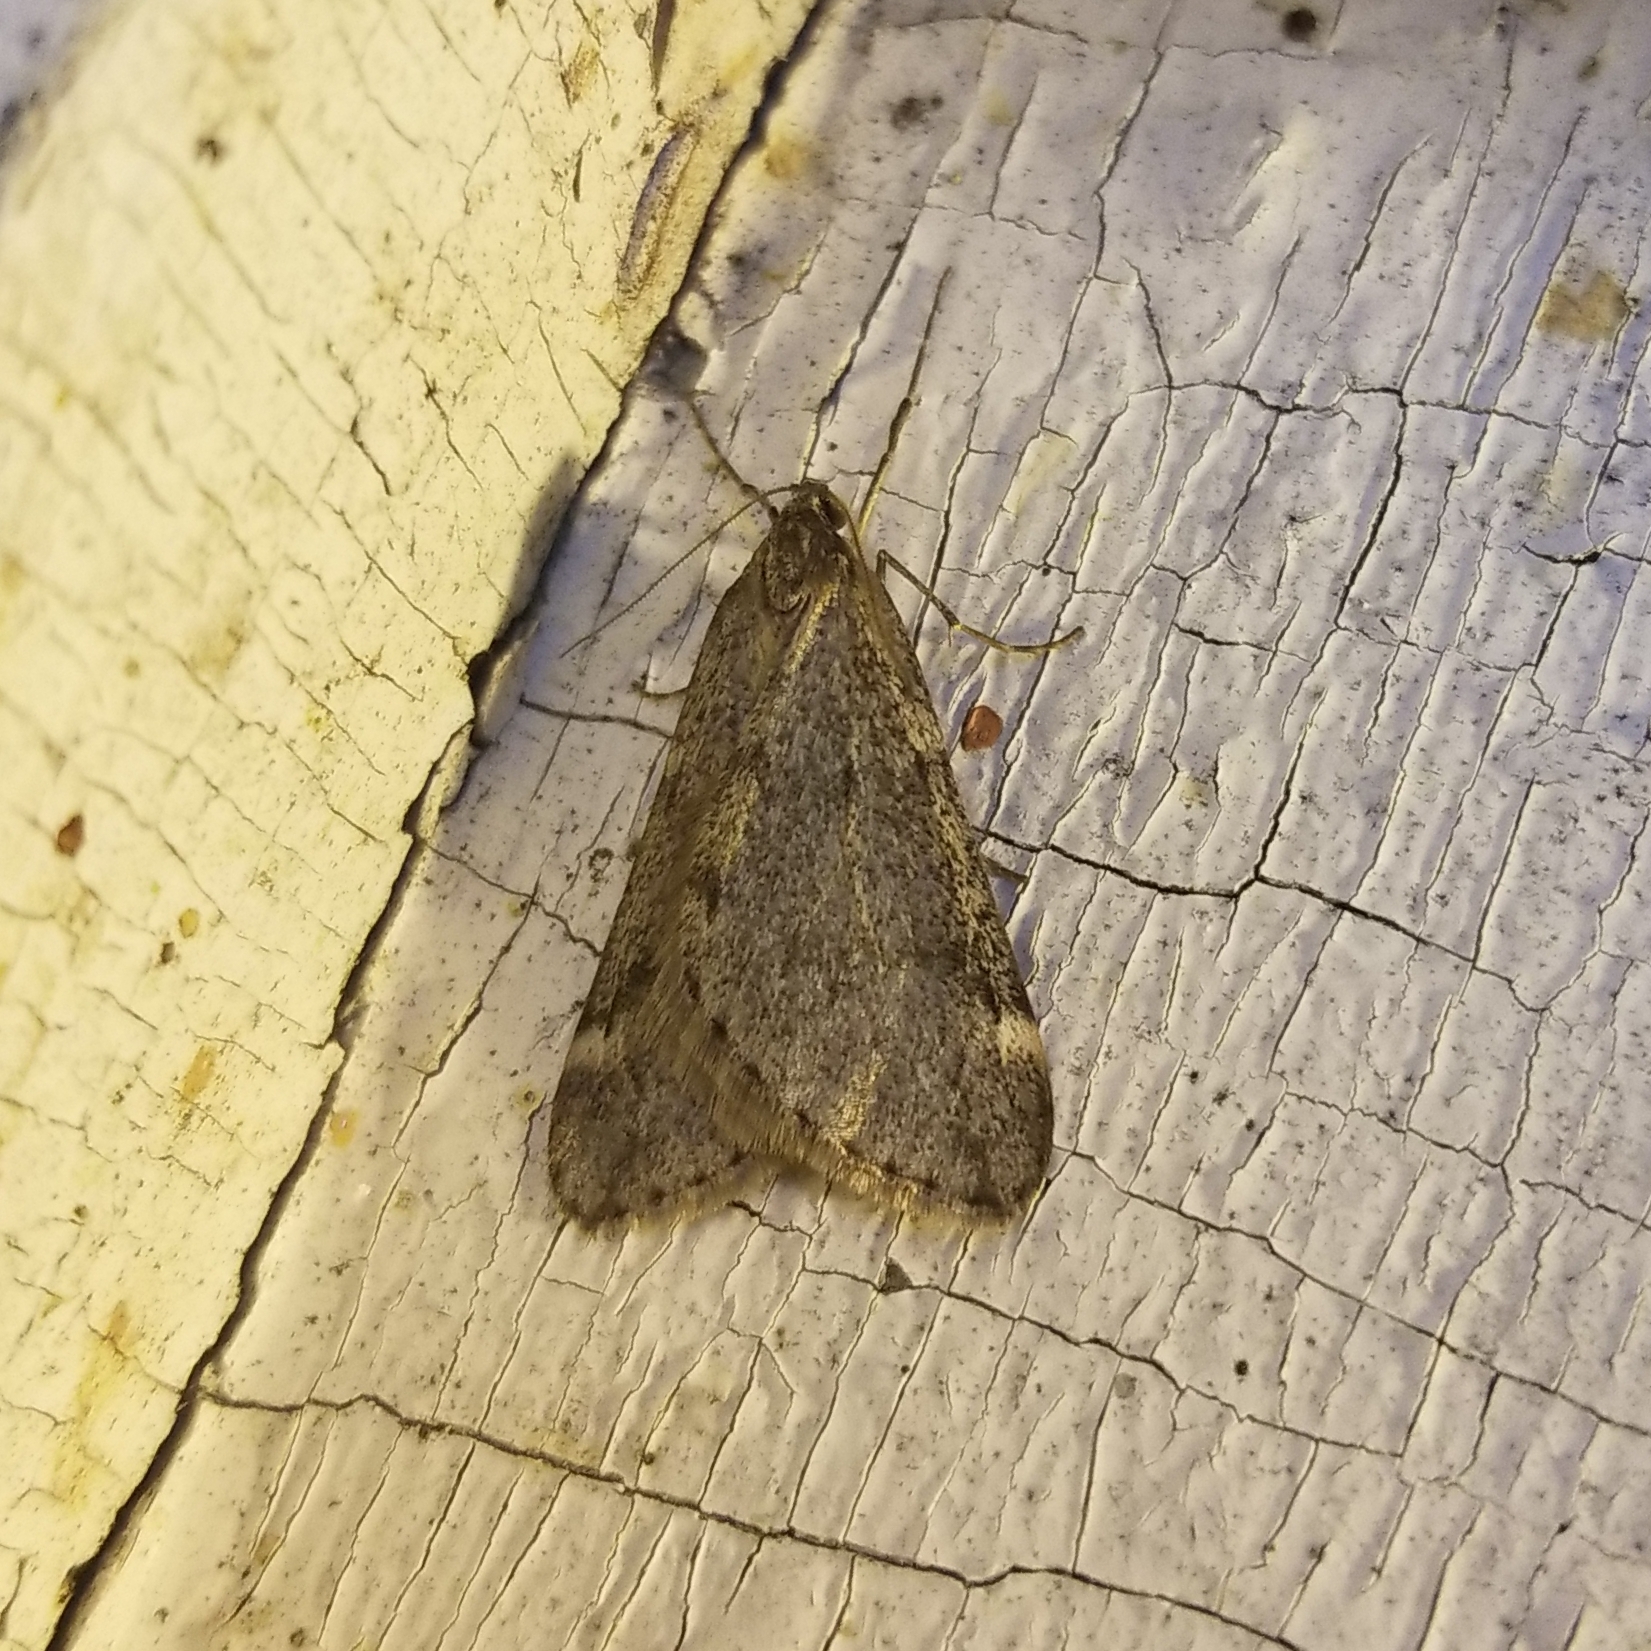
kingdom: Animalia
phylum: Arthropoda
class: Insecta
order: Lepidoptera
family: Geometridae
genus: Alsophila
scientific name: Alsophila pometaria
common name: Fall cankerworm
